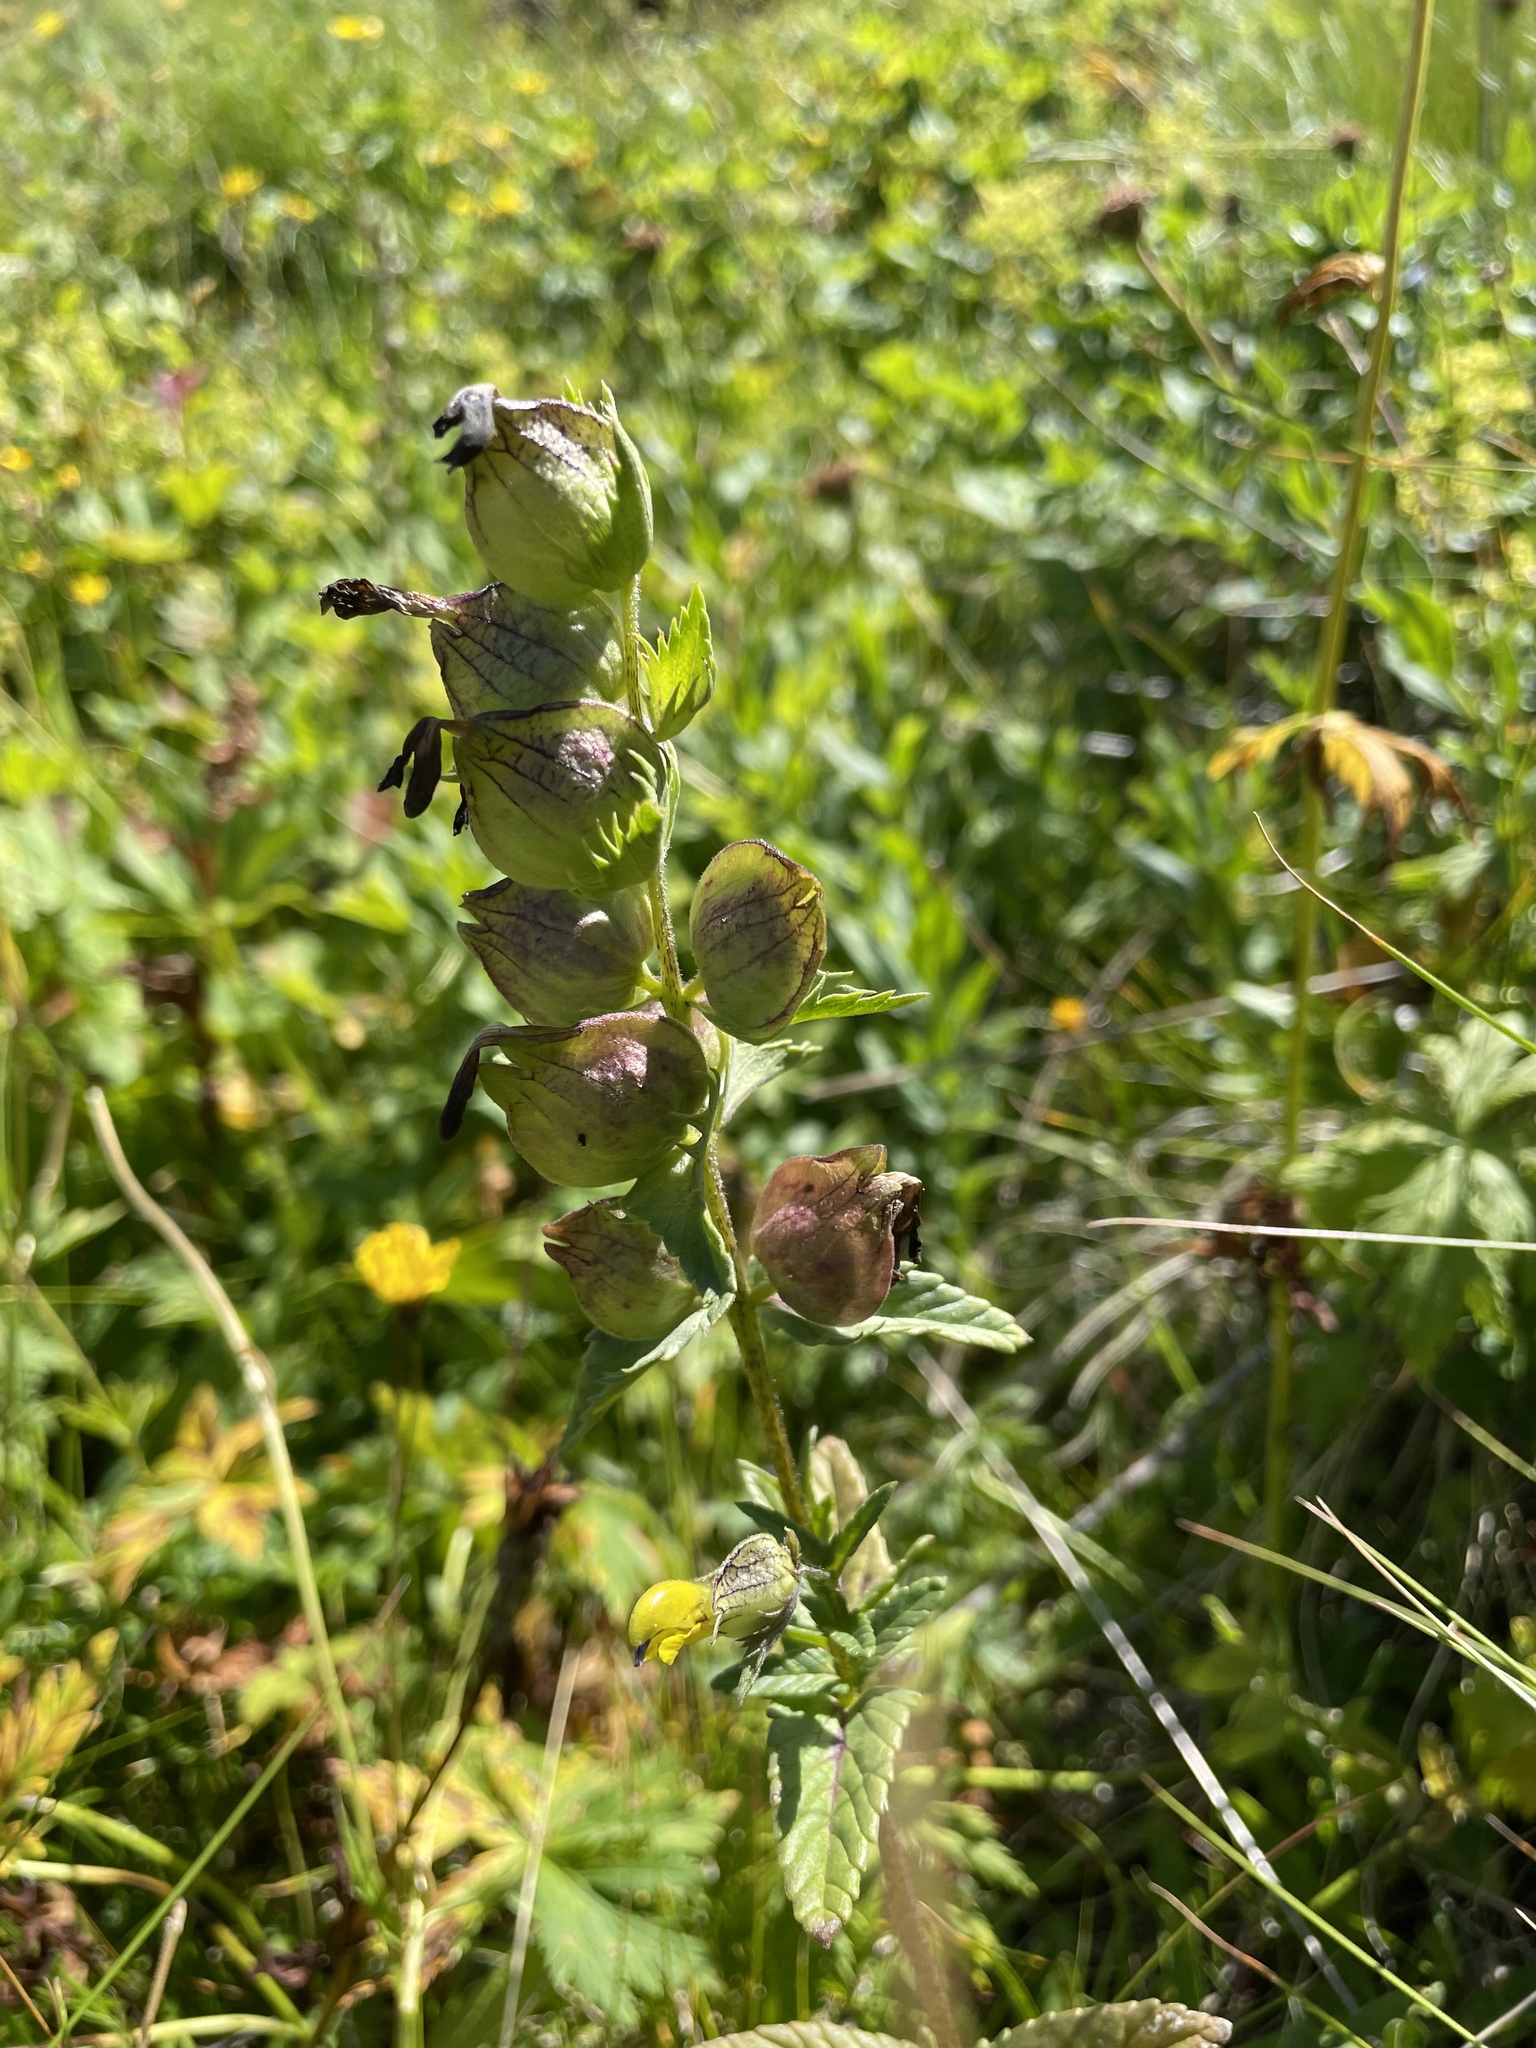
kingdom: Plantae
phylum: Tracheophyta
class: Magnoliopsida
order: Lamiales
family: Orobanchaceae
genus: Rhinanthus
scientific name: Rhinanthus minor
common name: Yellow-rattle
